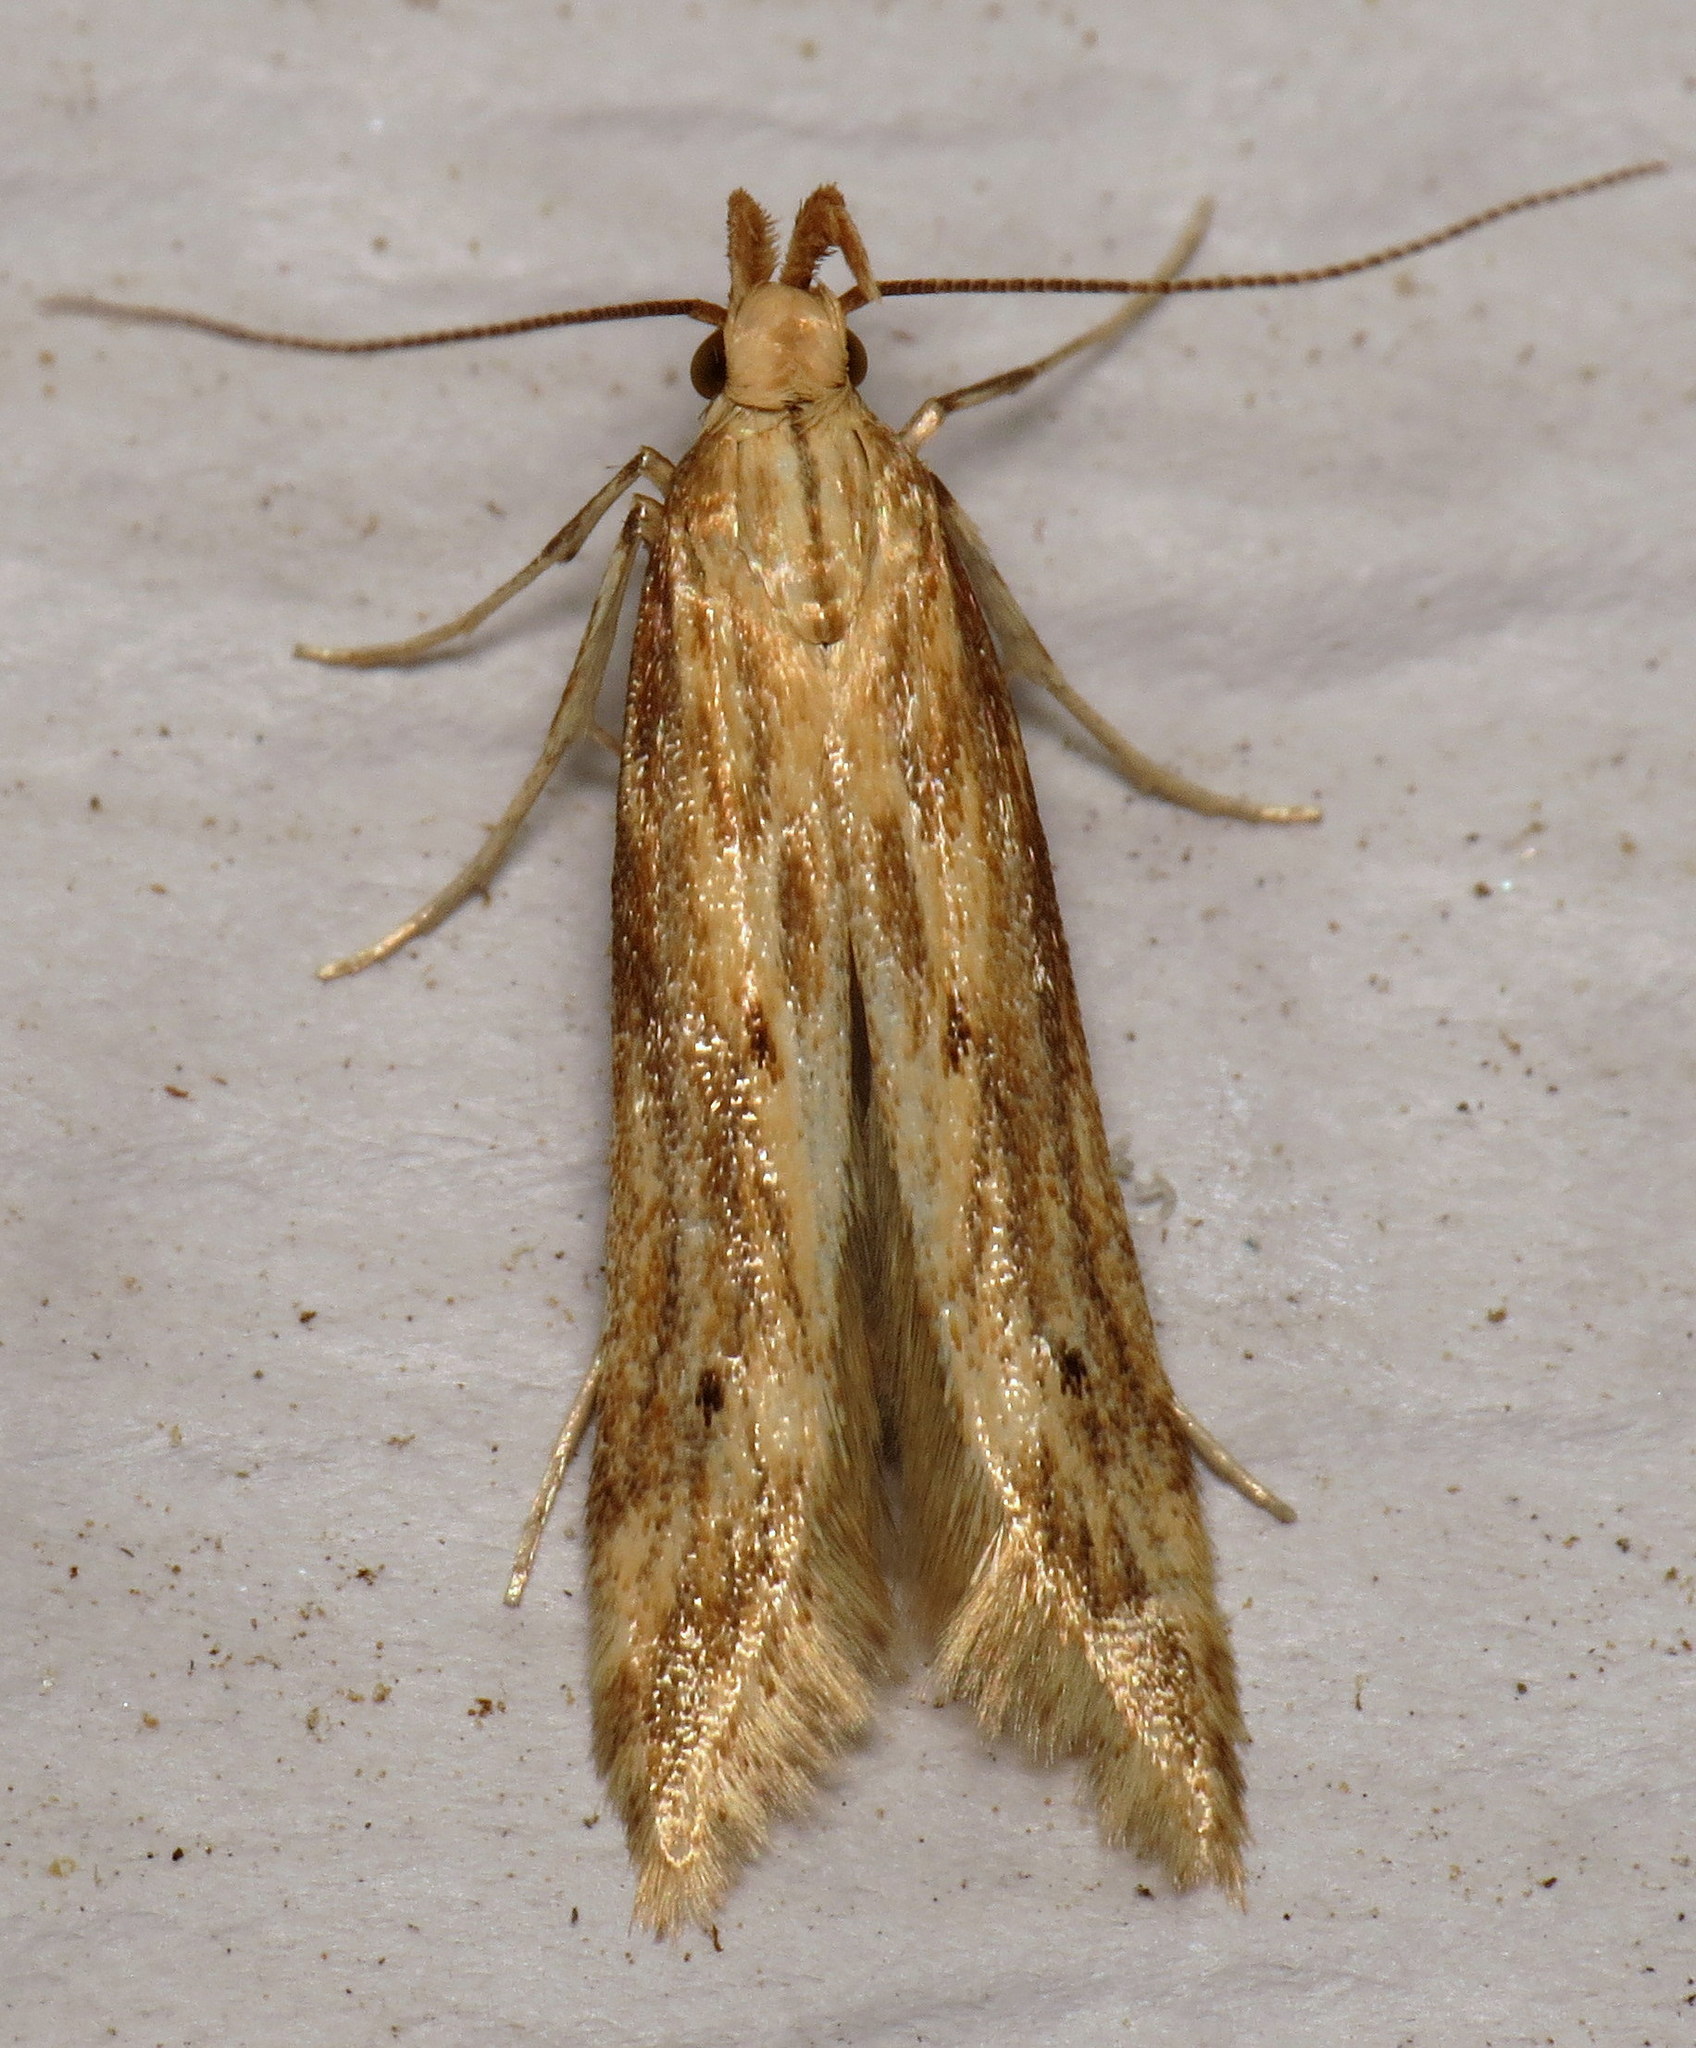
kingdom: Animalia
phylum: Arthropoda
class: Insecta
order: Lepidoptera
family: Gelechiidae
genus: Metzneria
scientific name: Metzneria lappella
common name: Burdock neb
